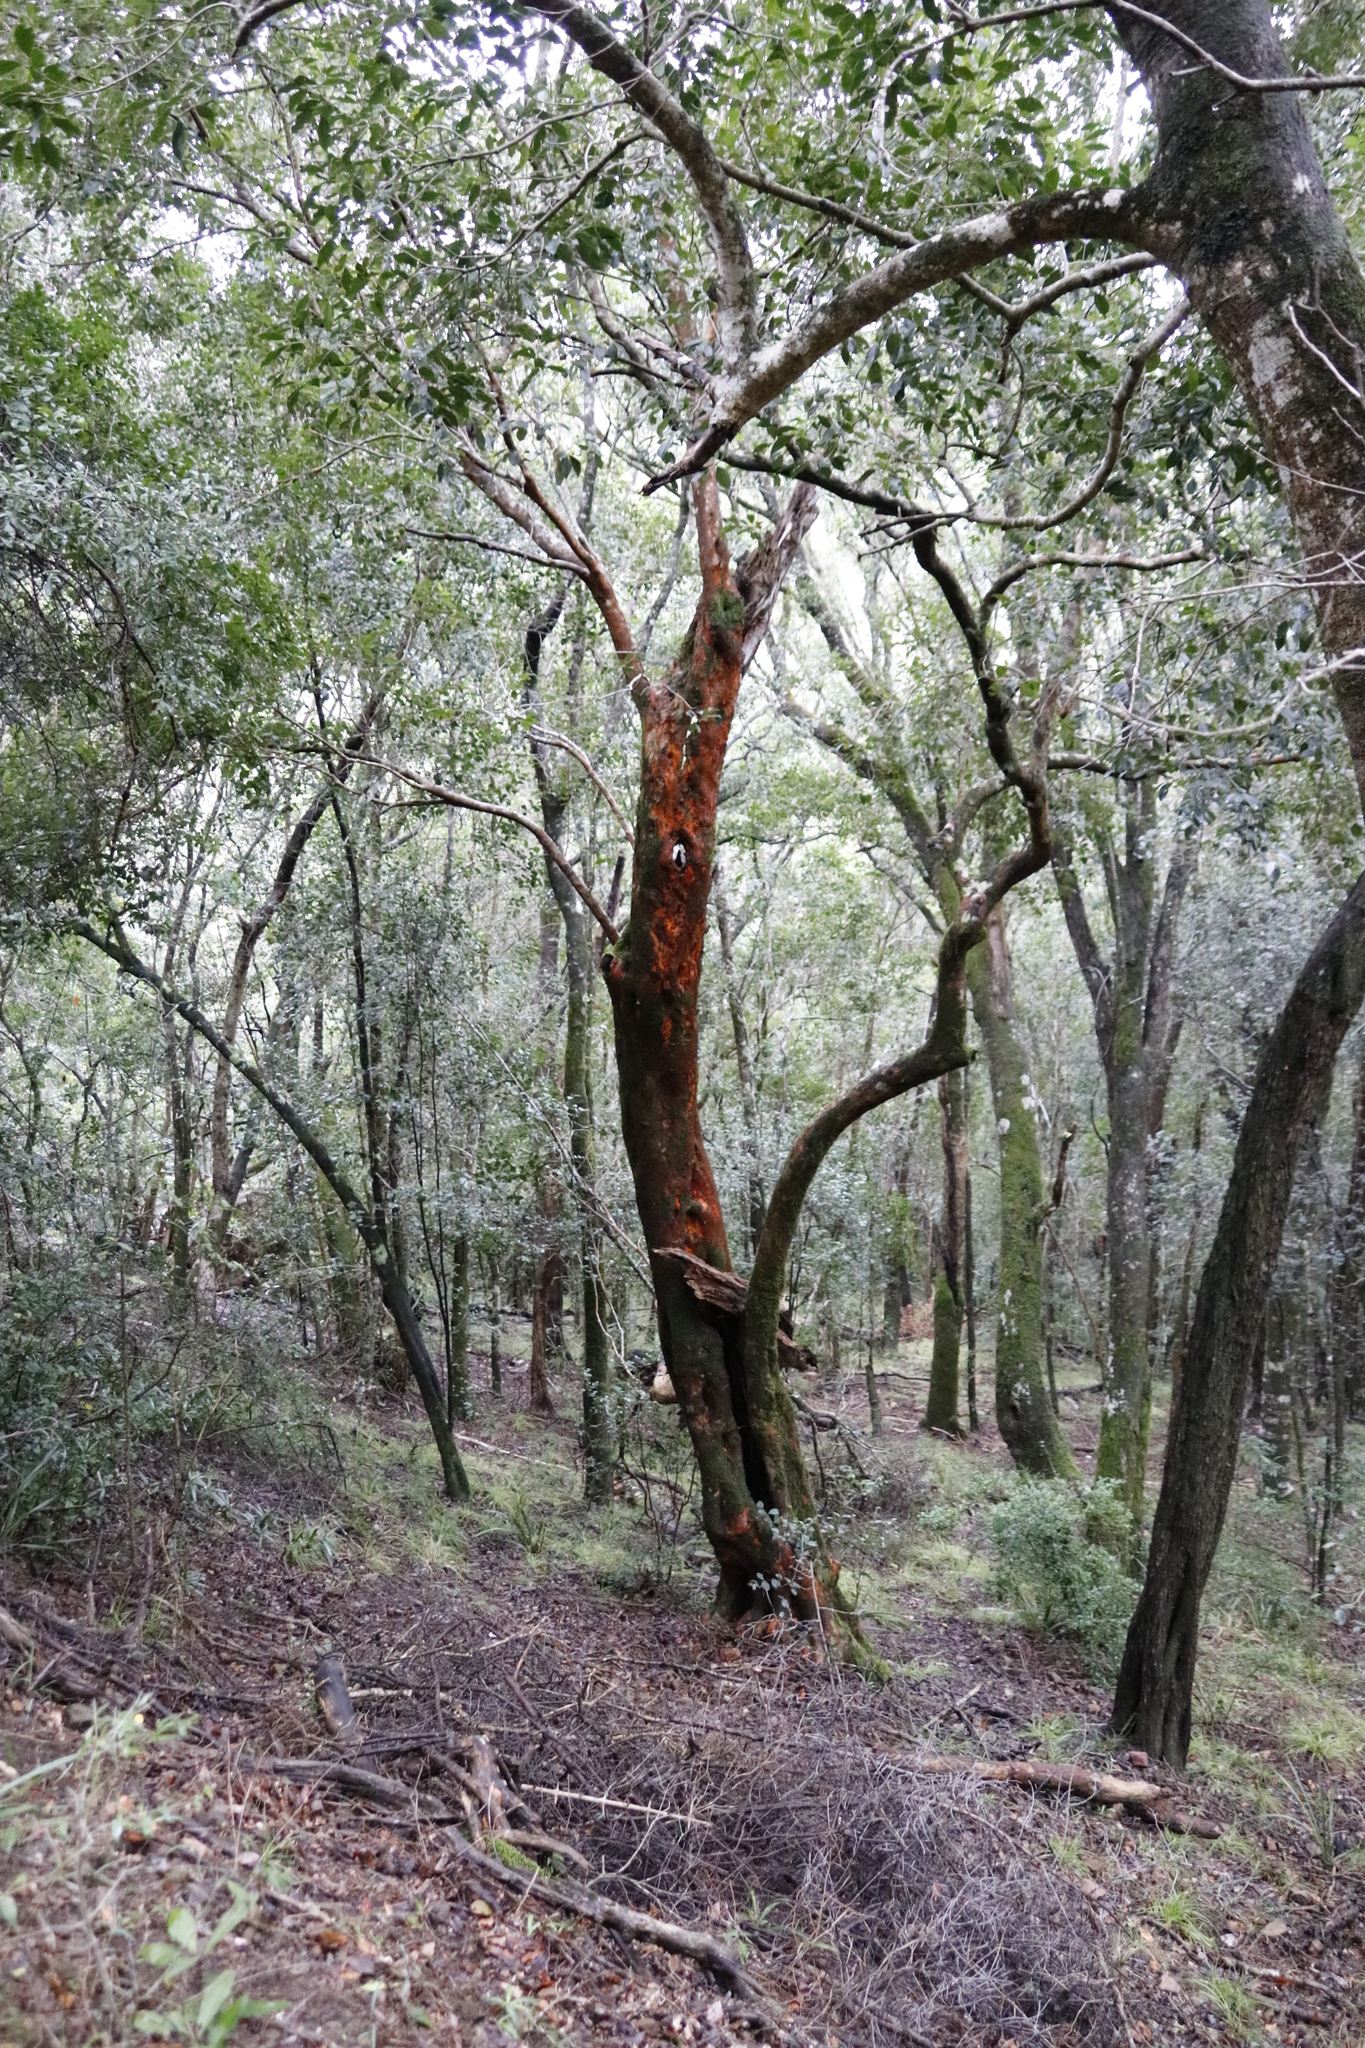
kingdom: Plantae
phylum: Tracheophyta
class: Magnoliopsida
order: Celastrales
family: Celastraceae
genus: Cassine
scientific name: Cassine peragua
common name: Cape saffron
